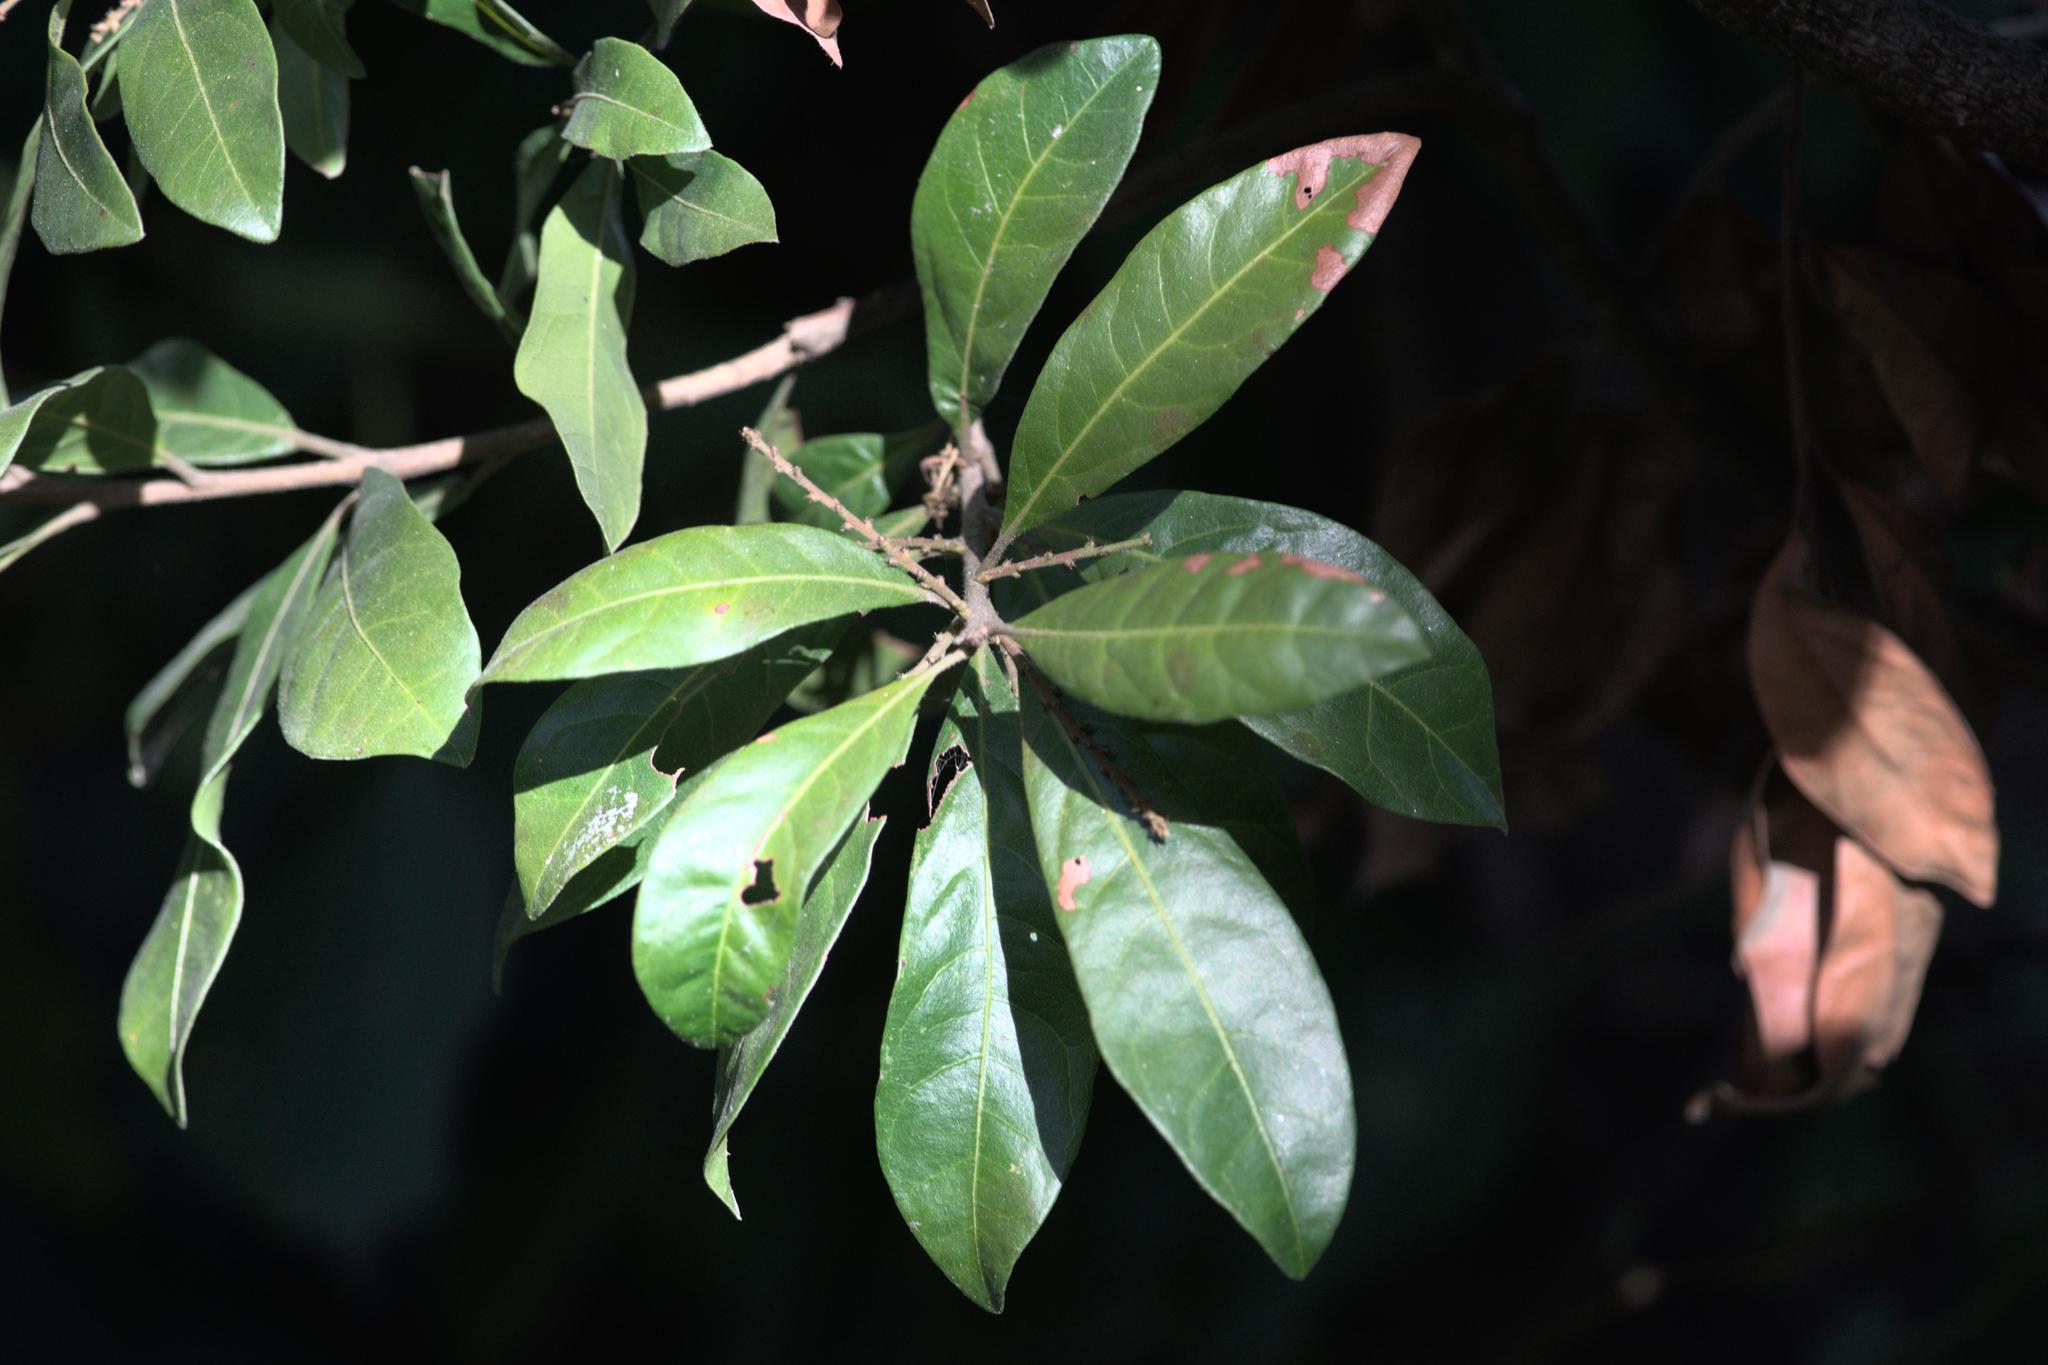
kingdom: Plantae
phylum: Tracheophyta
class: Magnoliopsida
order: Fagales
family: Myricaceae
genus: Morella
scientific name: Morella esculenta
